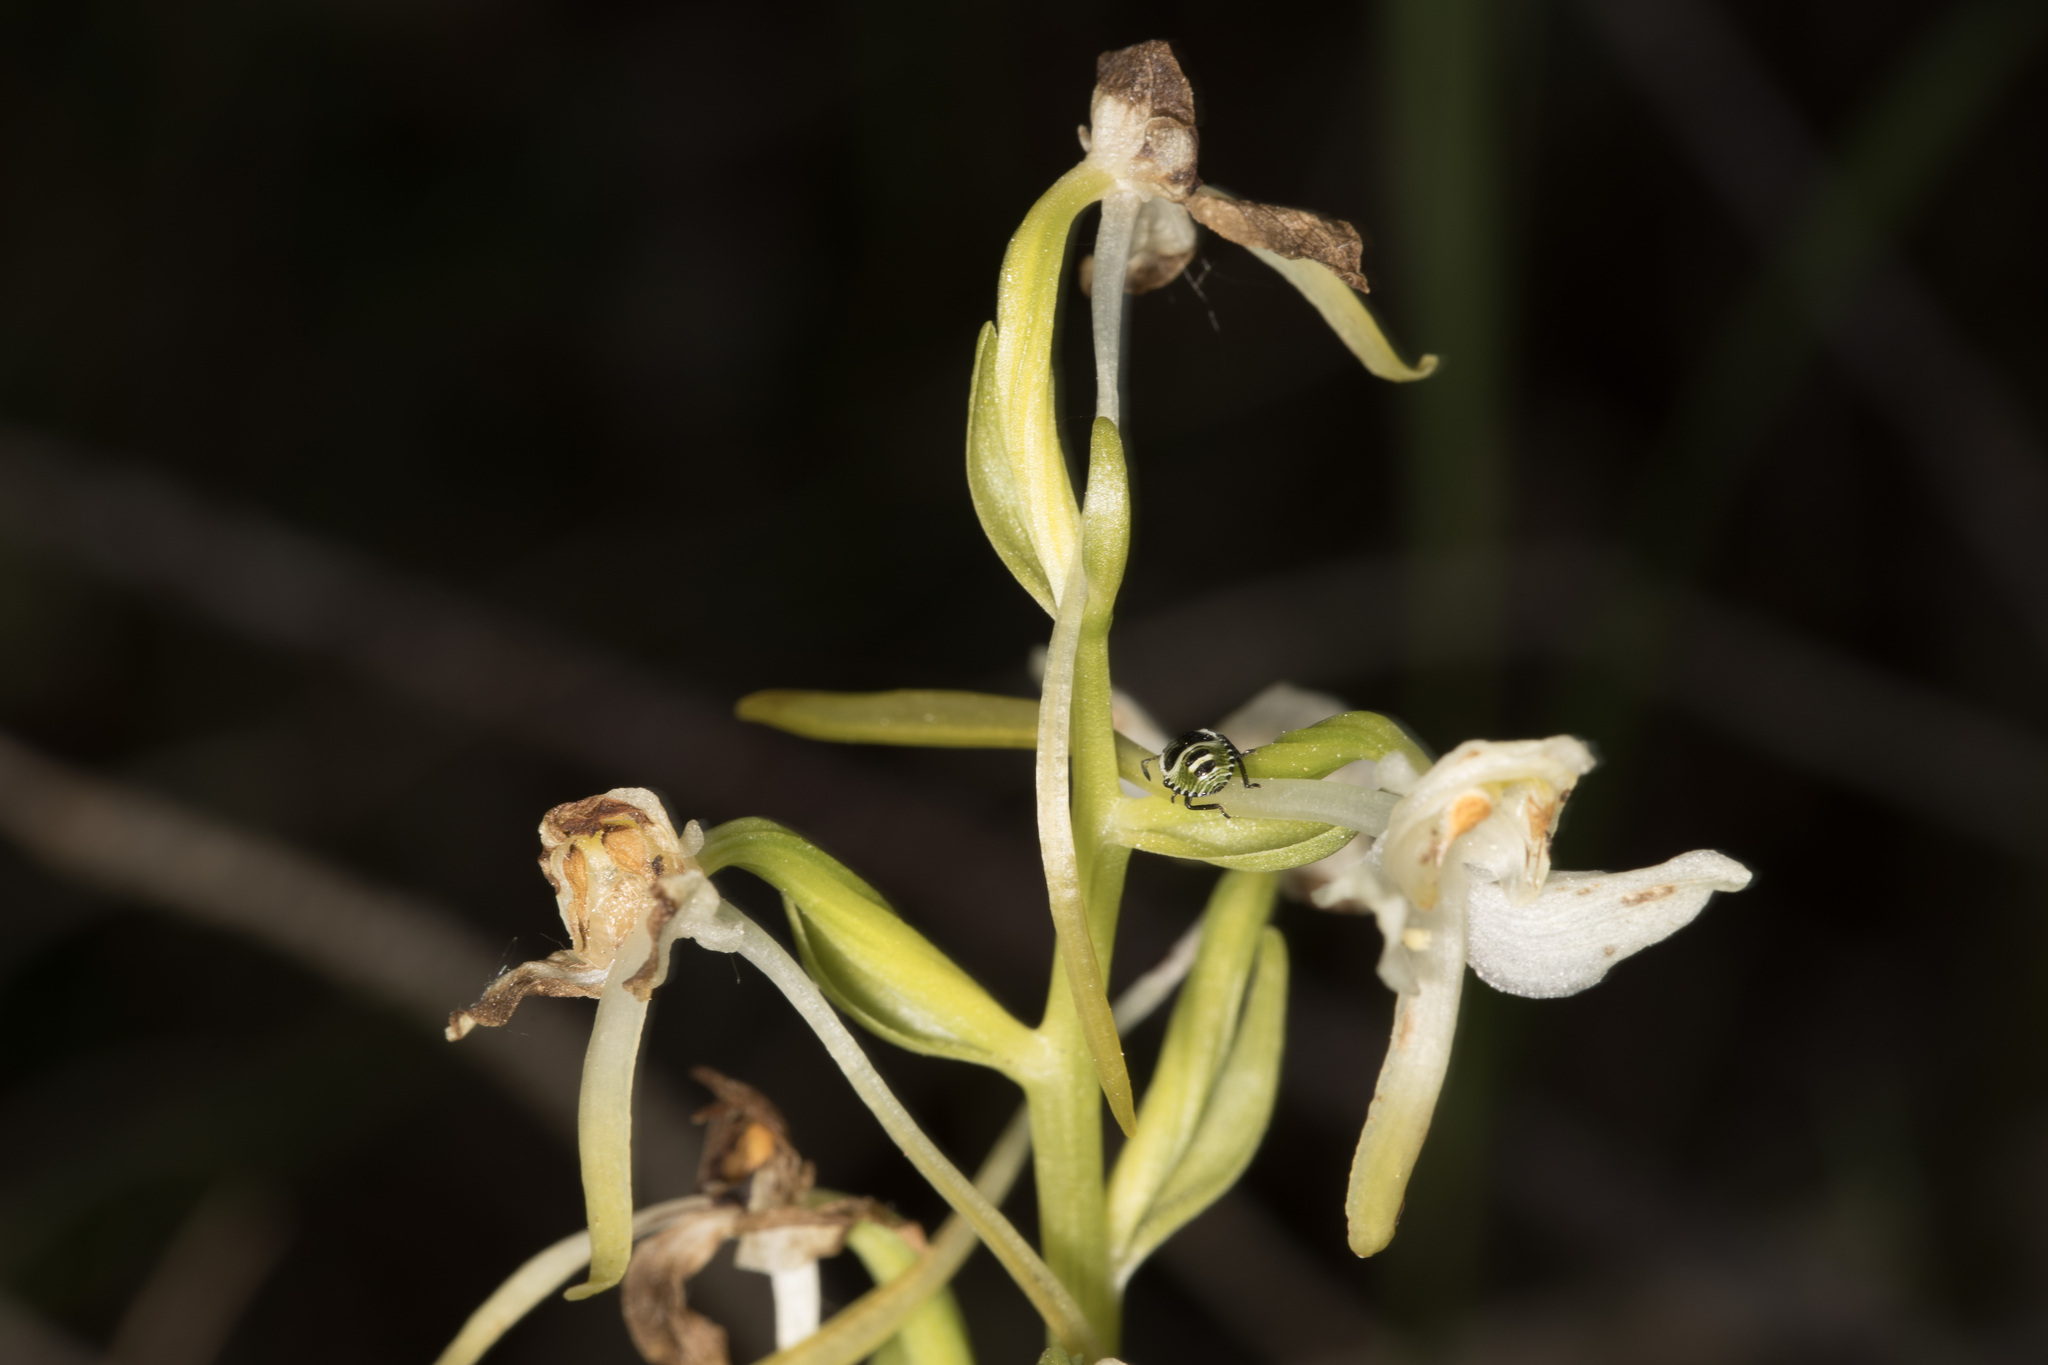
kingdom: Animalia
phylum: Arthropoda
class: Insecta
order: Hemiptera
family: Pentatomidae
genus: Palomena
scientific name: Palomena prasina
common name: Green shieldbug
